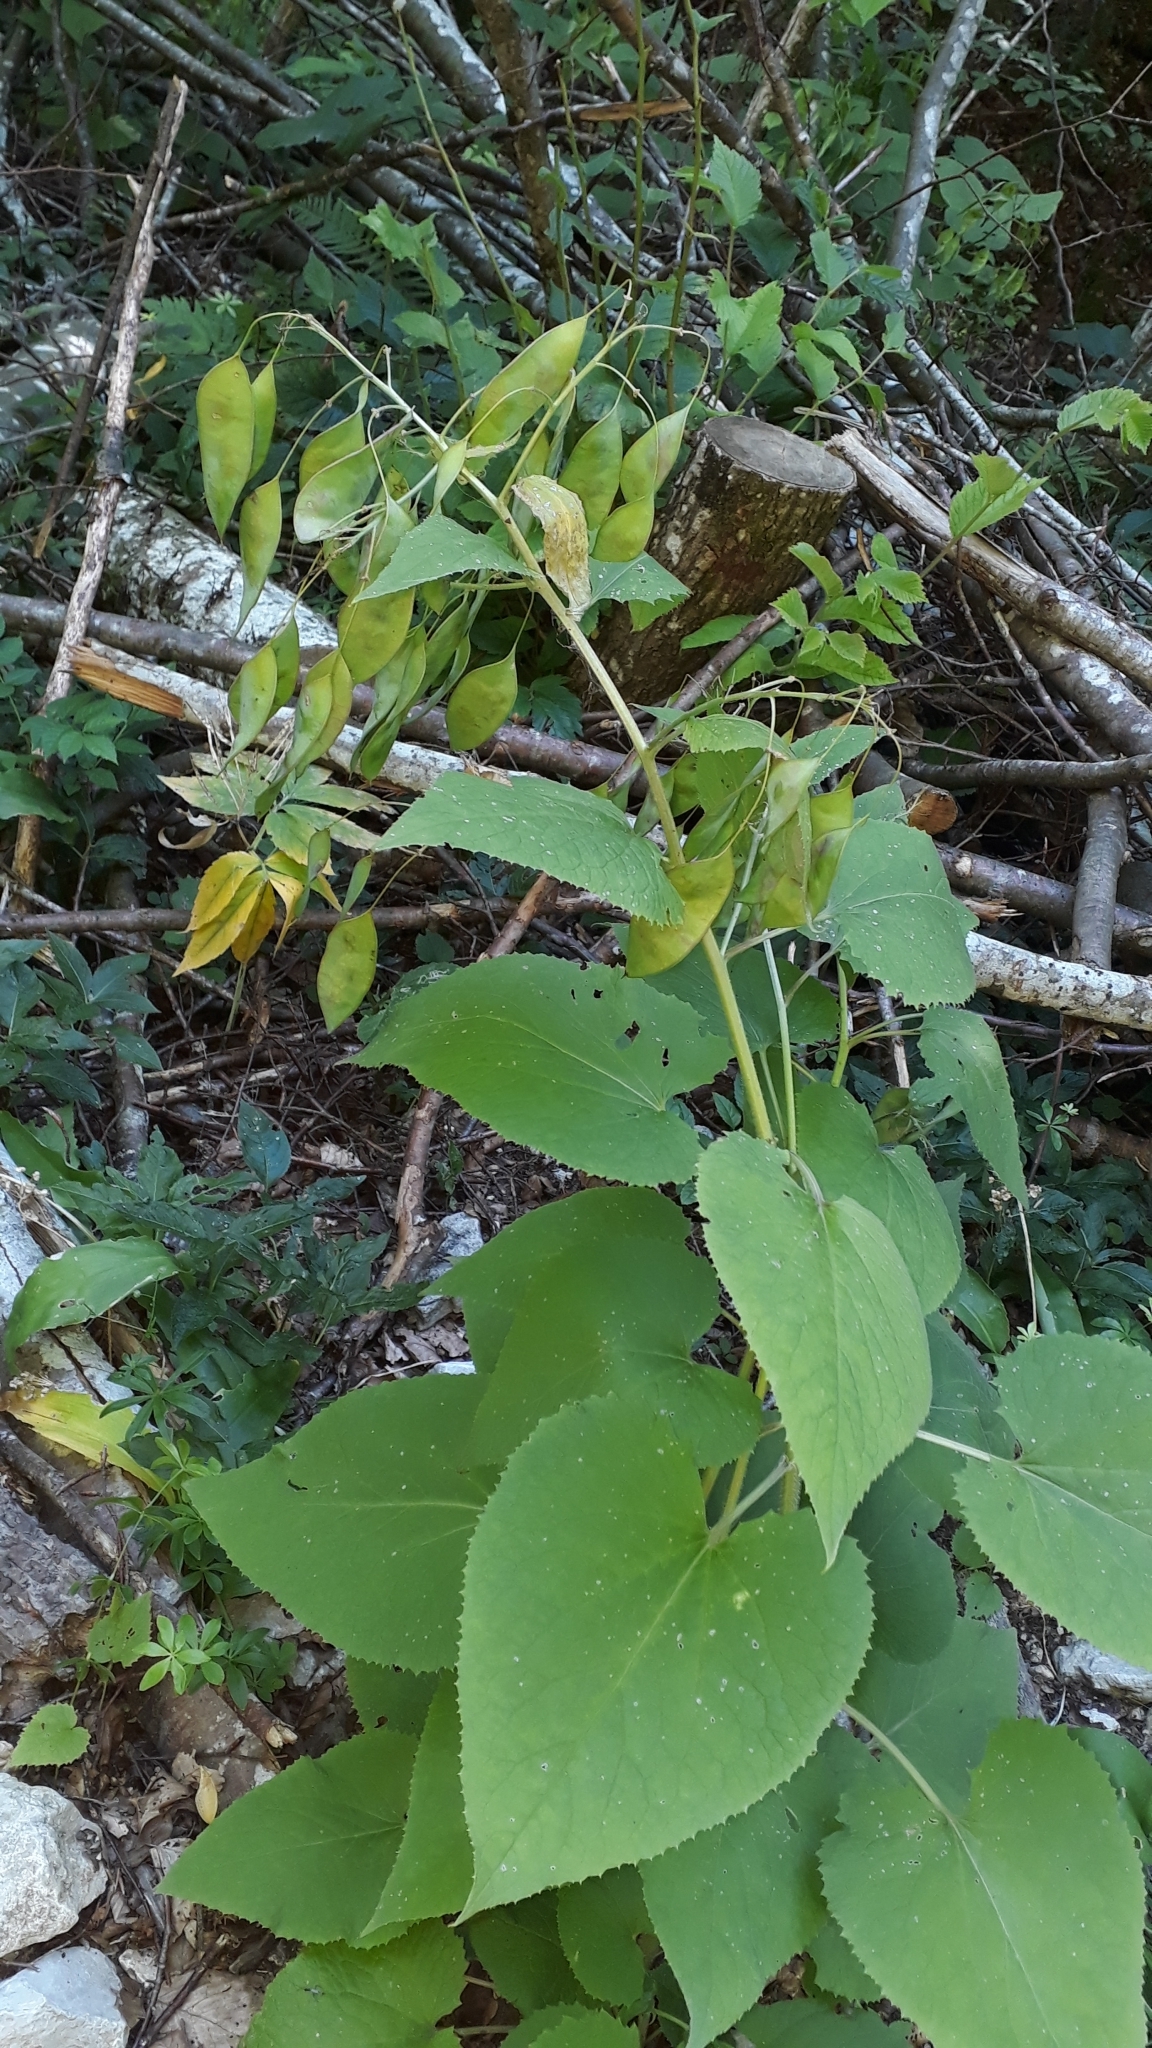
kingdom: Plantae
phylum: Tracheophyta
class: Magnoliopsida
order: Brassicales
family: Brassicaceae
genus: Lunaria
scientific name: Lunaria rediviva
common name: Perennial honesty
